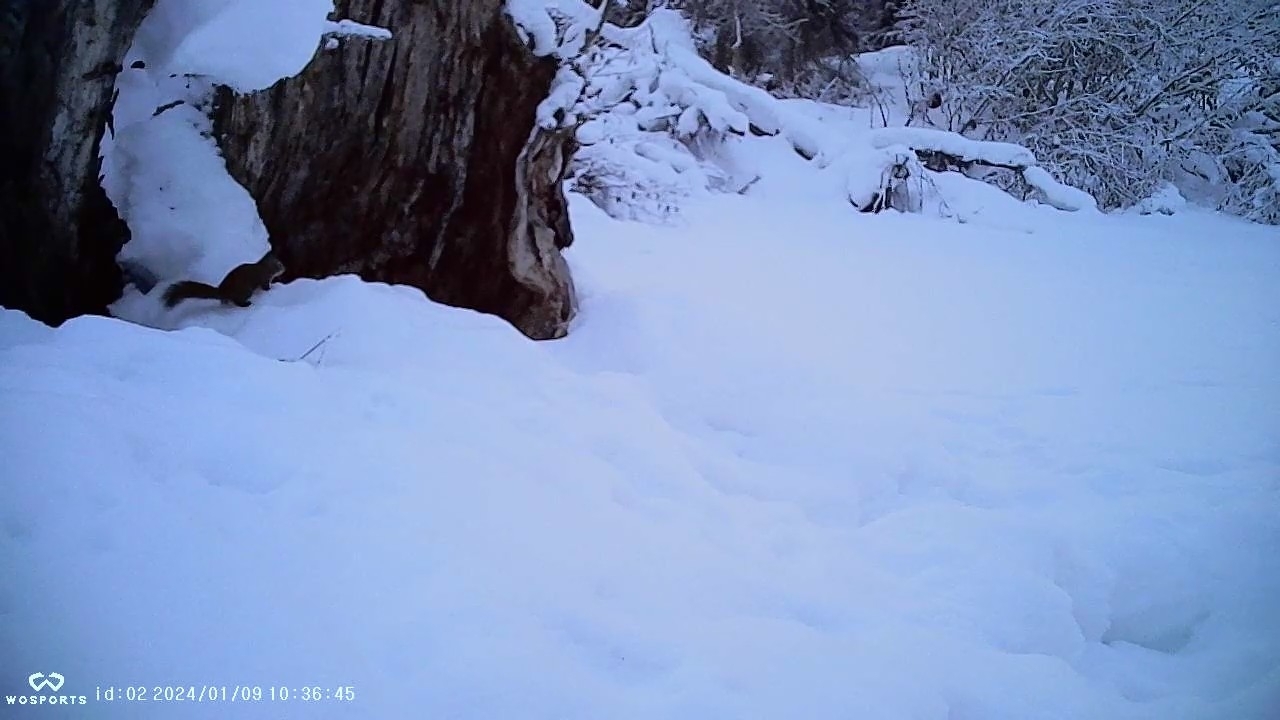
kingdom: Animalia
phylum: Chordata
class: Mammalia
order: Rodentia
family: Sciuridae
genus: Tamiasciurus
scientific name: Tamiasciurus hudsonicus
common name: Red squirrel
